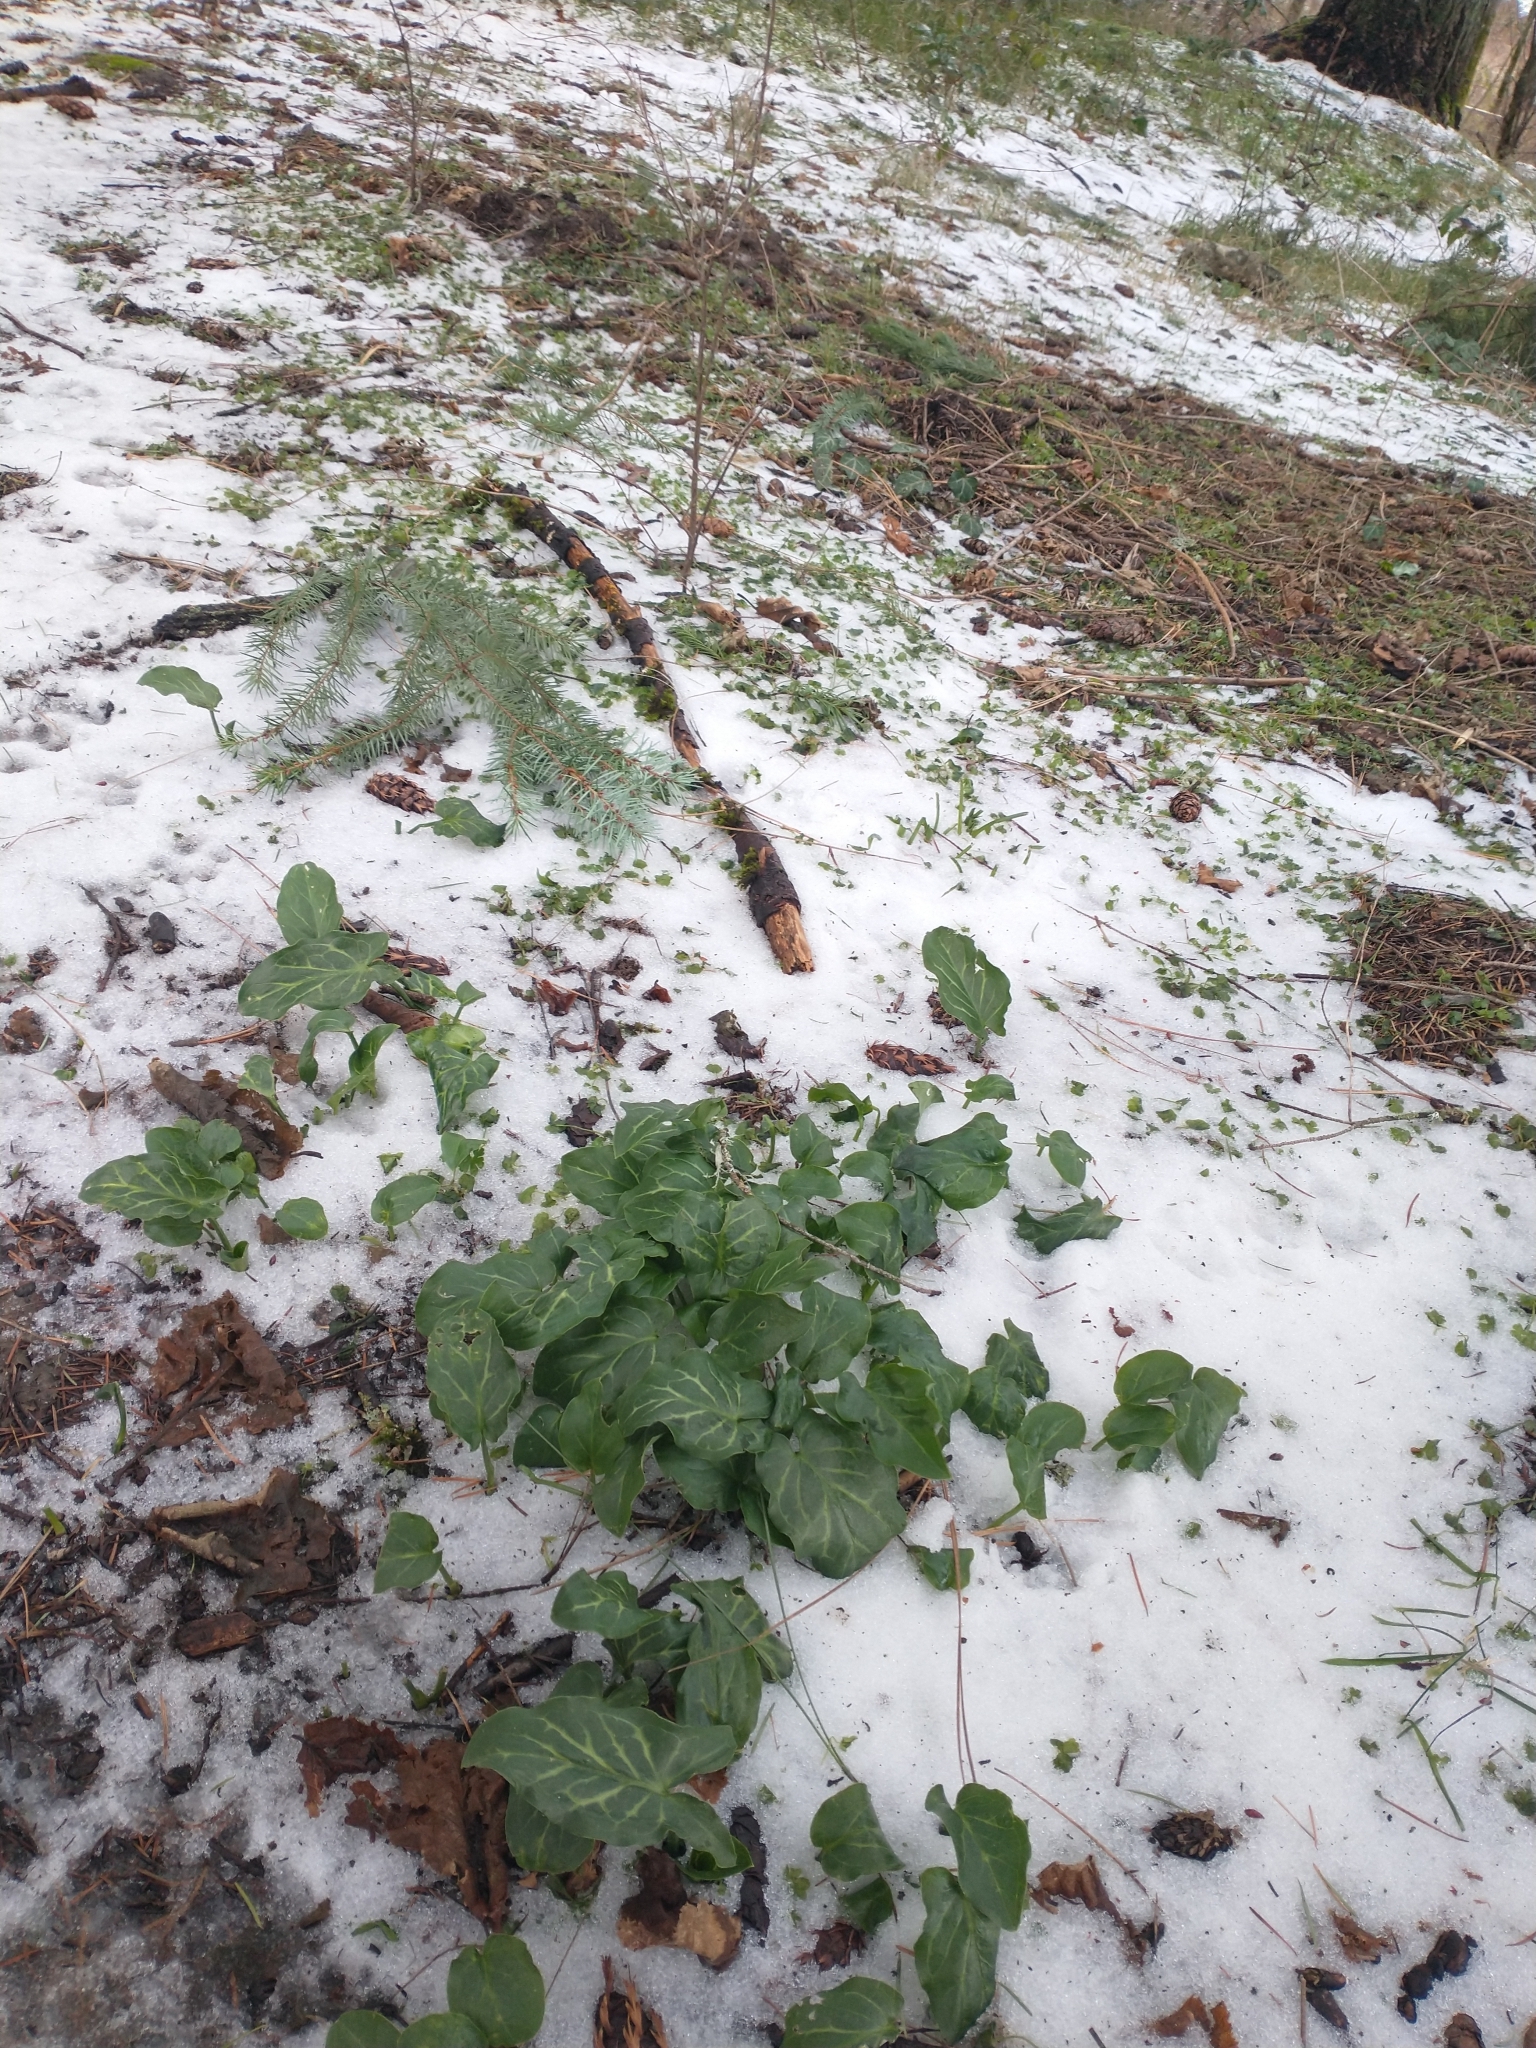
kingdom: Plantae
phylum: Tracheophyta
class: Liliopsida
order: Alismatales
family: Araceae
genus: Arum
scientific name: Arum italicum
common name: Italian lords-and-ladies
